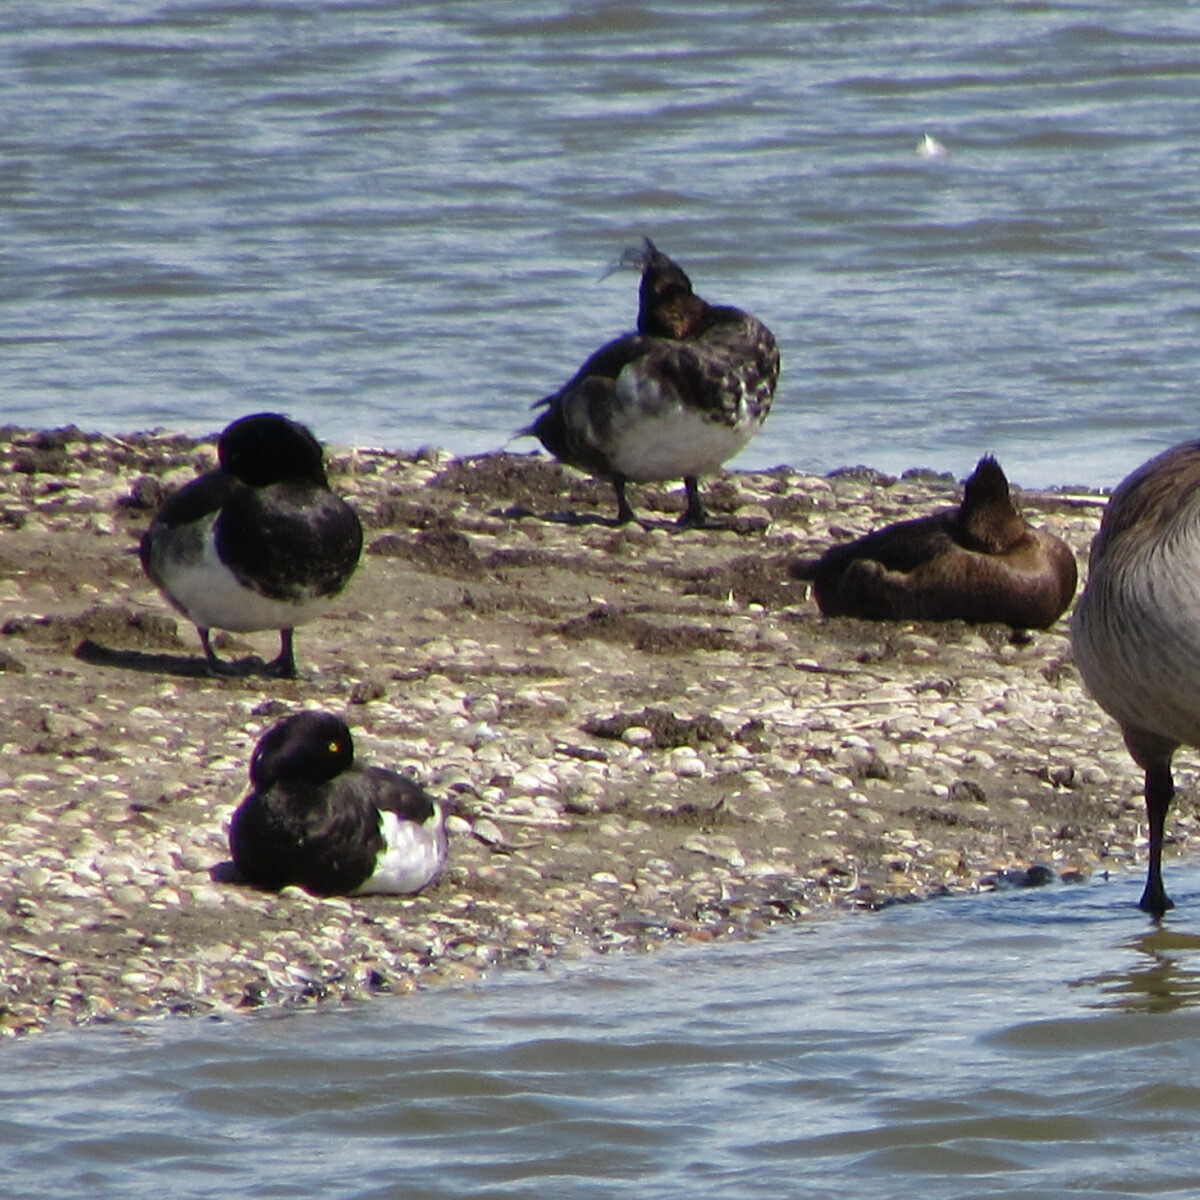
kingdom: Animalia
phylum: Chordata
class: Aves
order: Anseriformes
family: Anatidae
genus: Aythya
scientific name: Aythya fuligula
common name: Tufted duck
